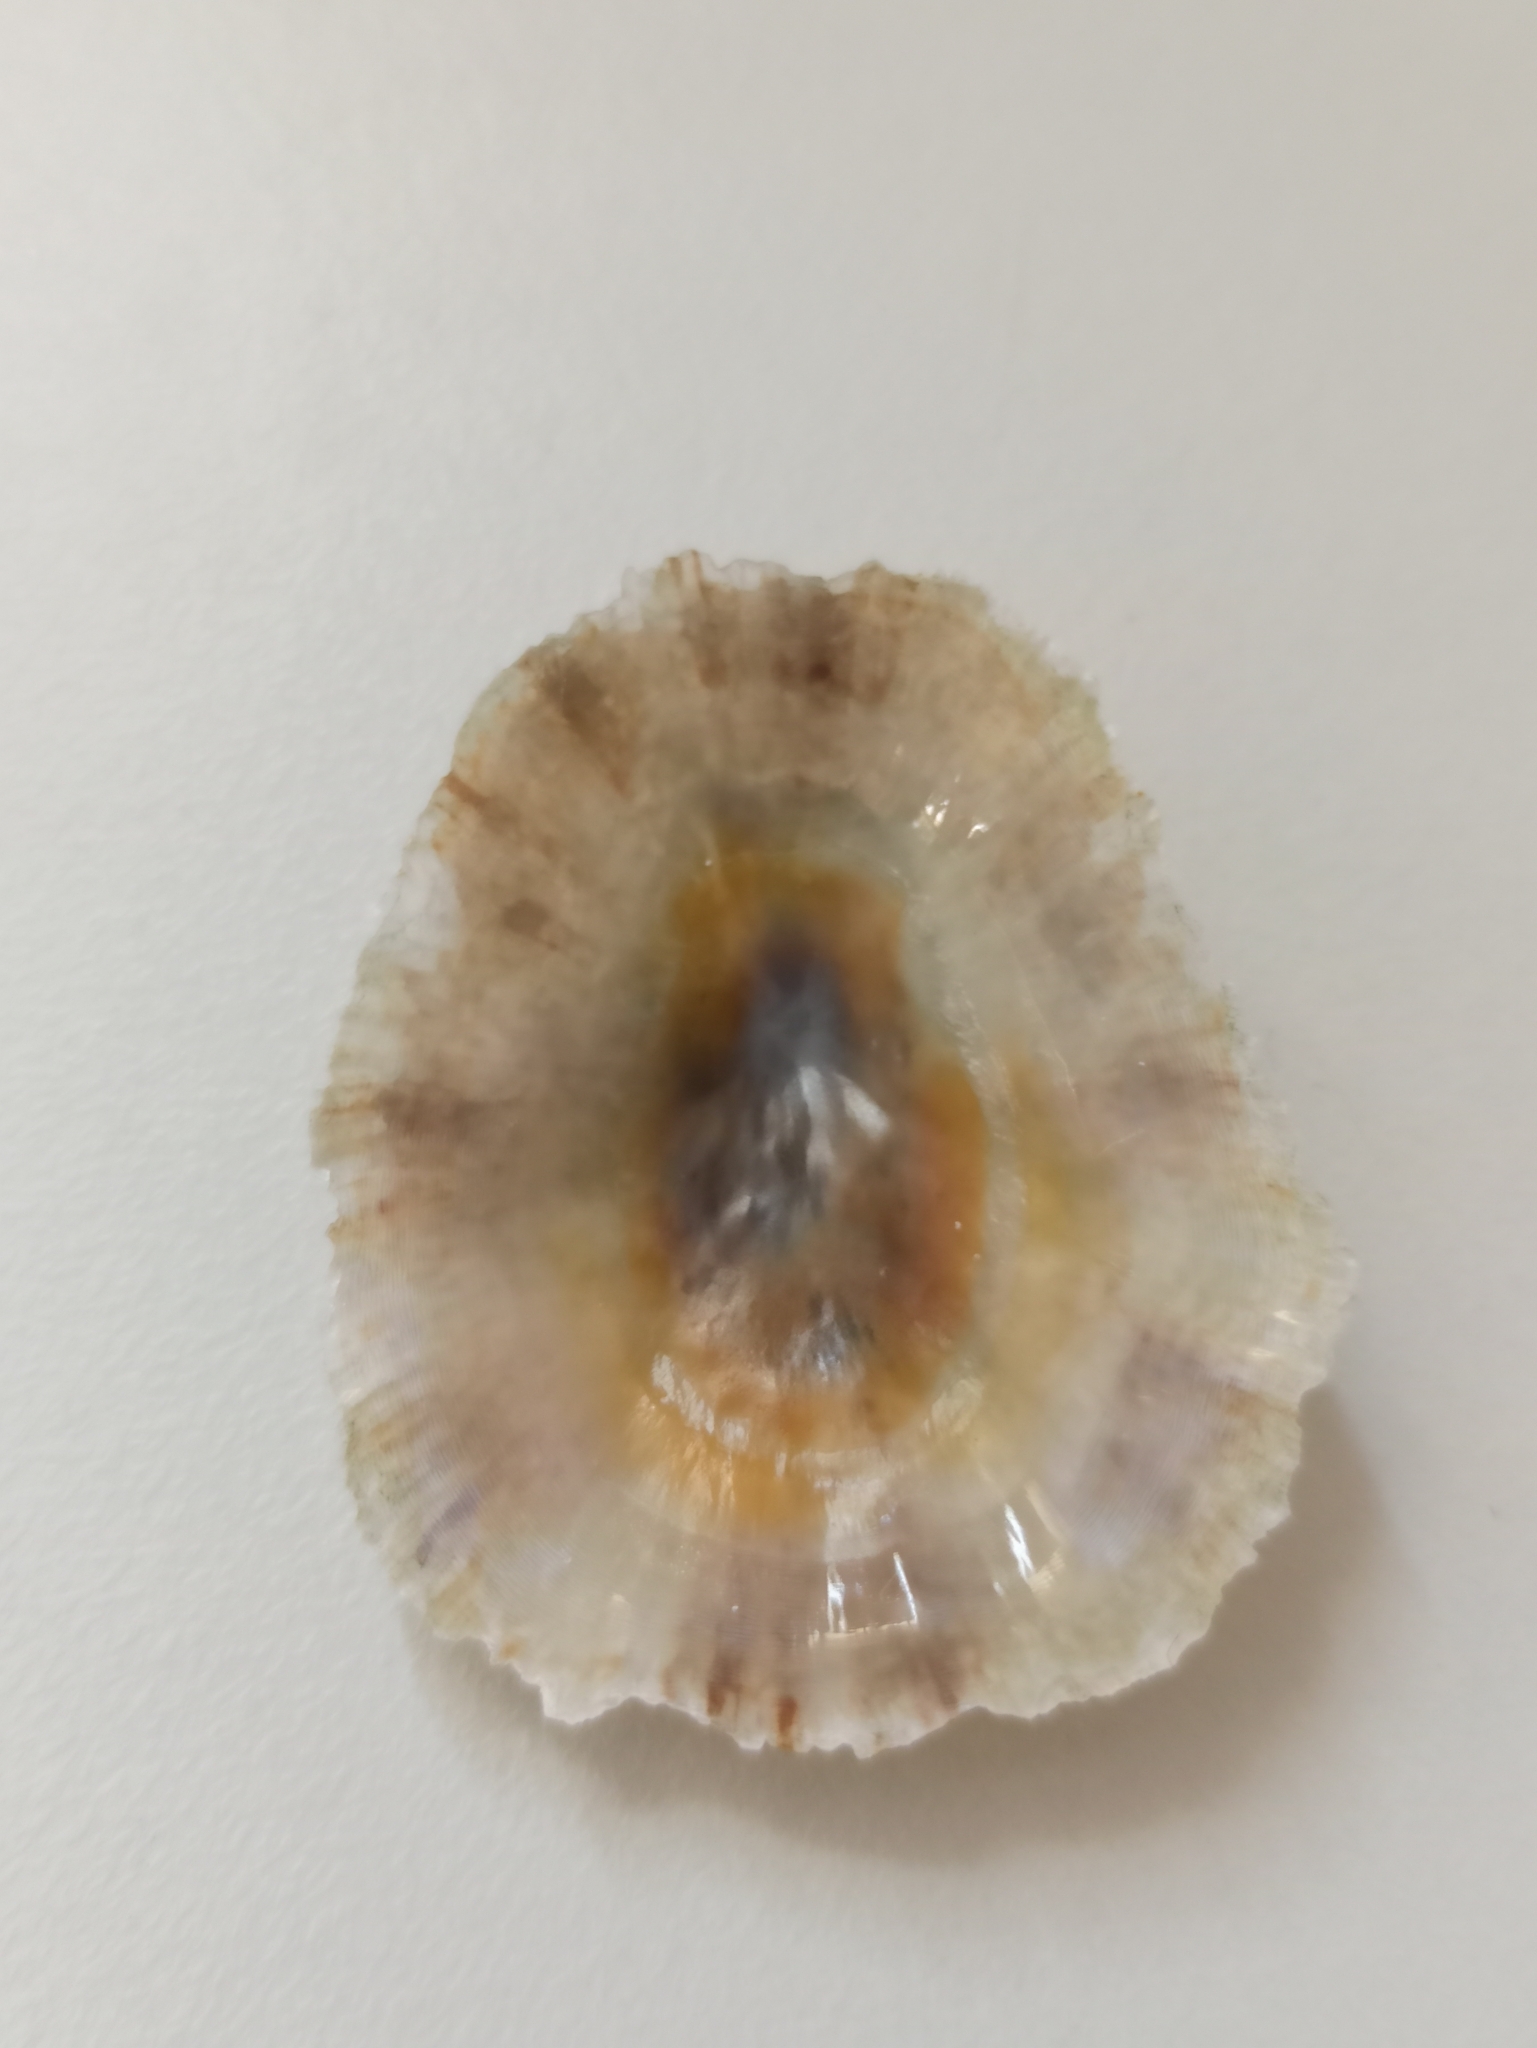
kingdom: Animalia
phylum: Mollusca
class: Gastropoda
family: Patellidae
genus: Patella
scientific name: Patella caerulea
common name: Mediterranean limpet
